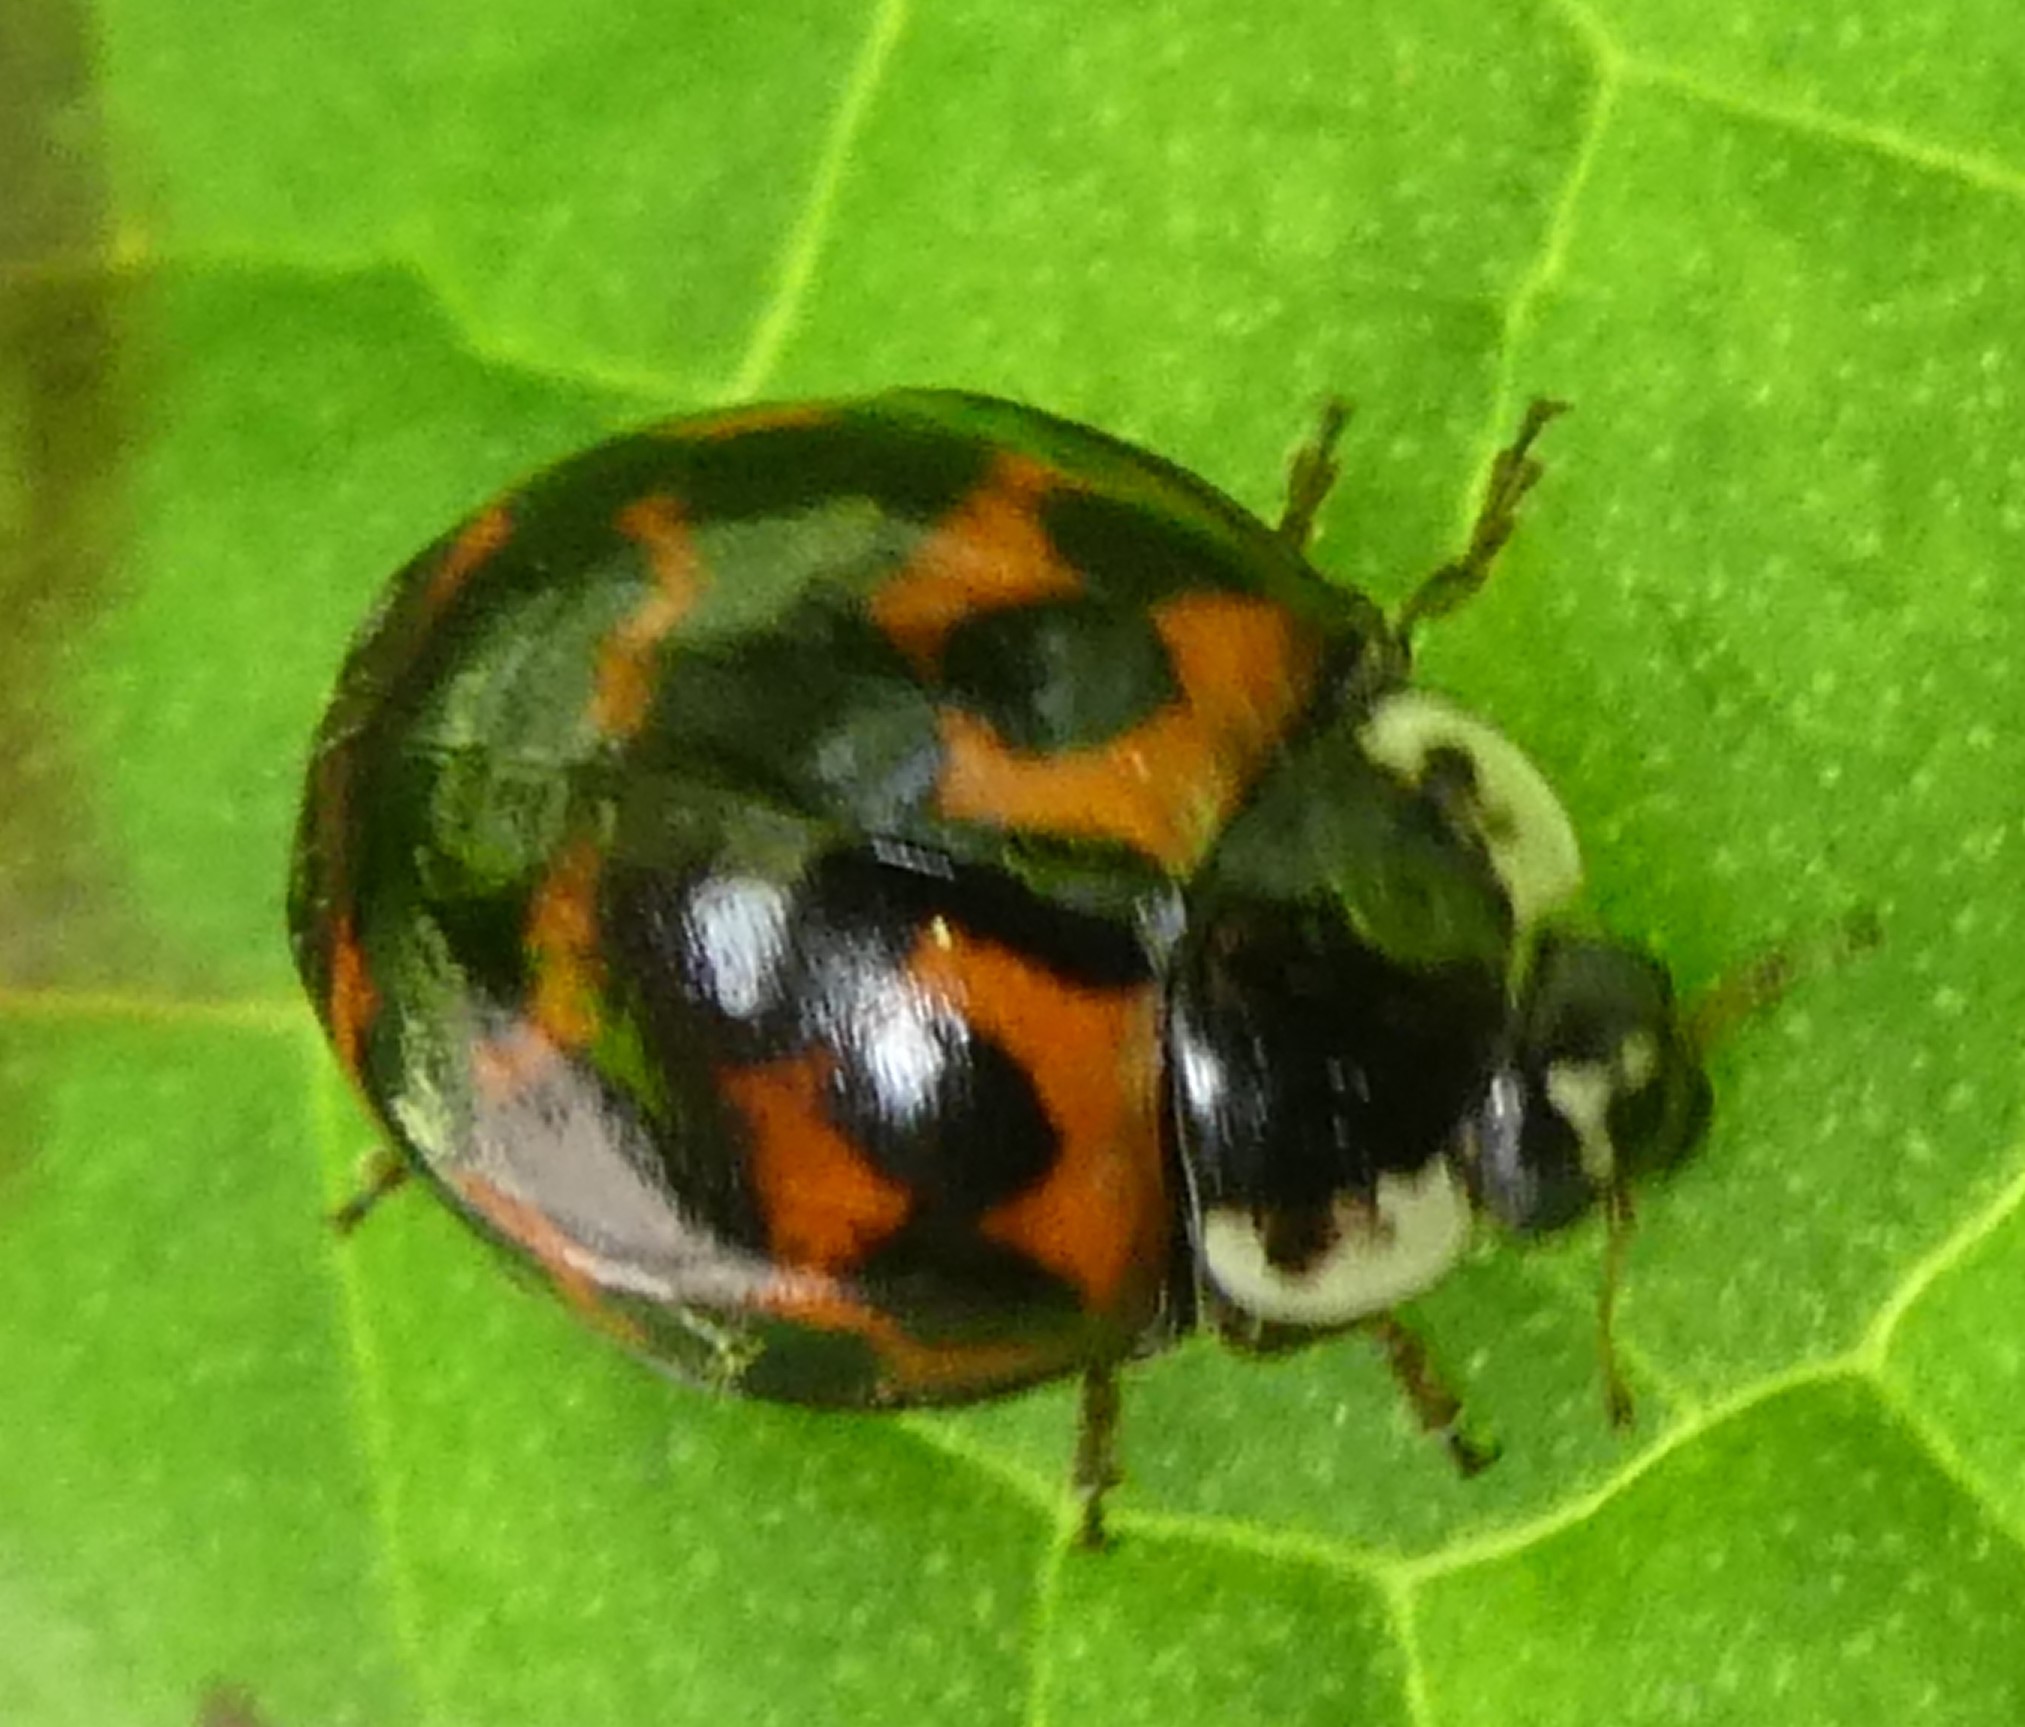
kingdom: Animalia
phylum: Arthropoda
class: Insecta
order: Coleoptera
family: Coccinellidae
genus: Harmonia
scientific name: Harmonia axyridis
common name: Harlequin ladybird
